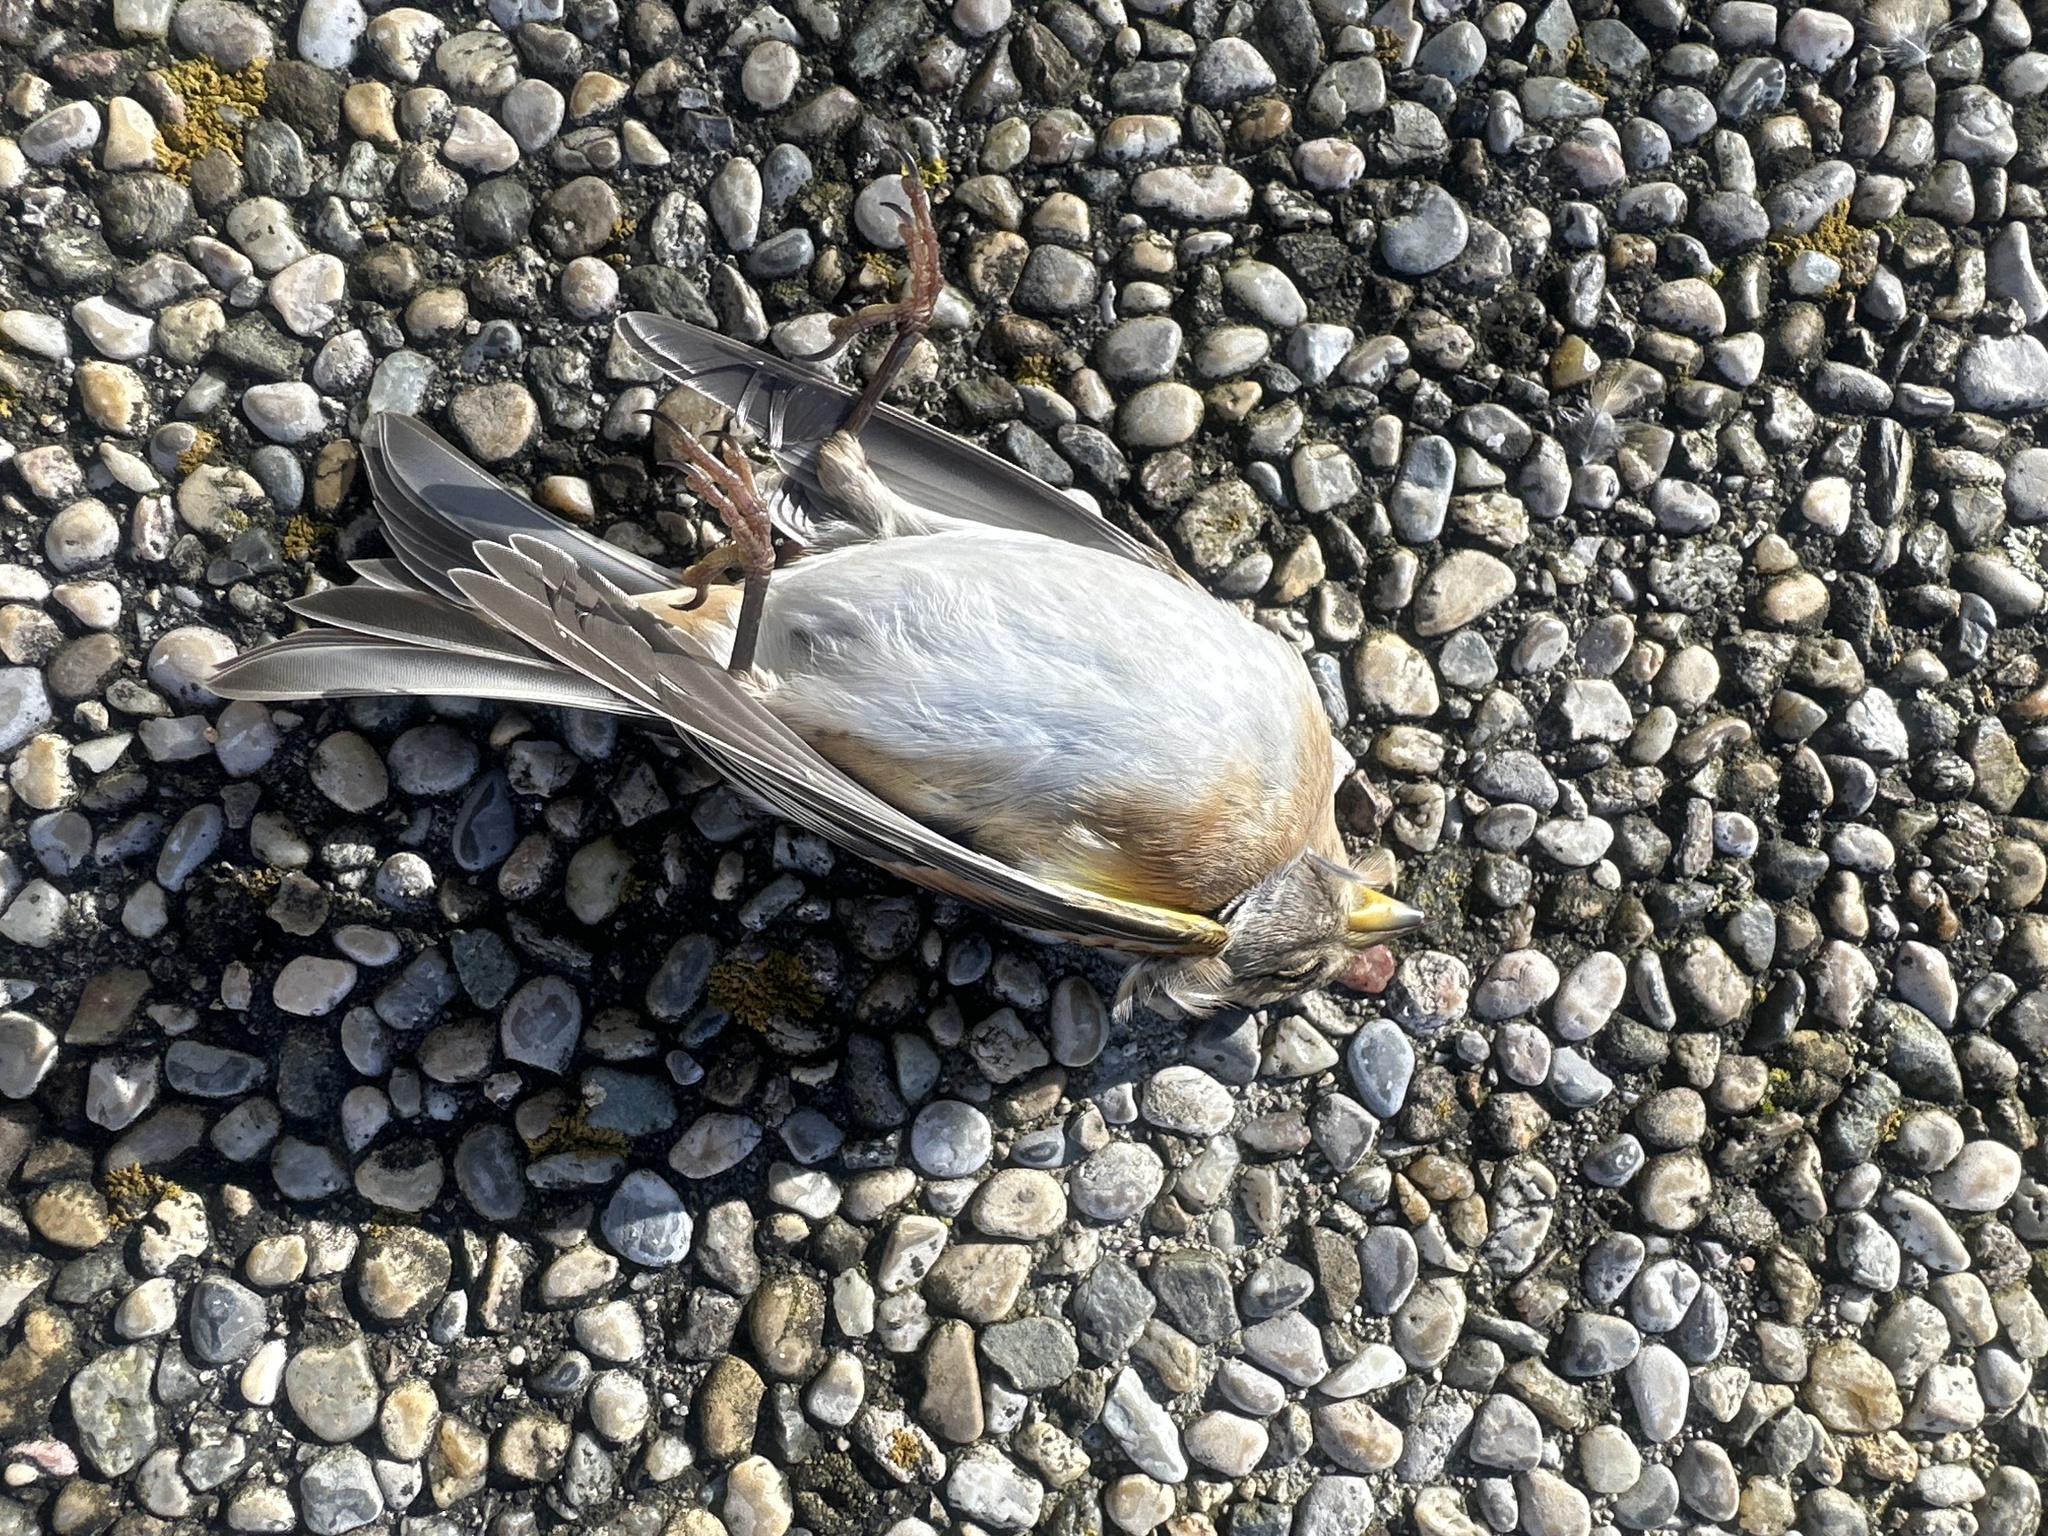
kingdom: Animalia
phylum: Chordata
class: Aves
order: Passeriformes
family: Fringillidae
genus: Fringilla
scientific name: Fringilla montifringilla
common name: Brambling
